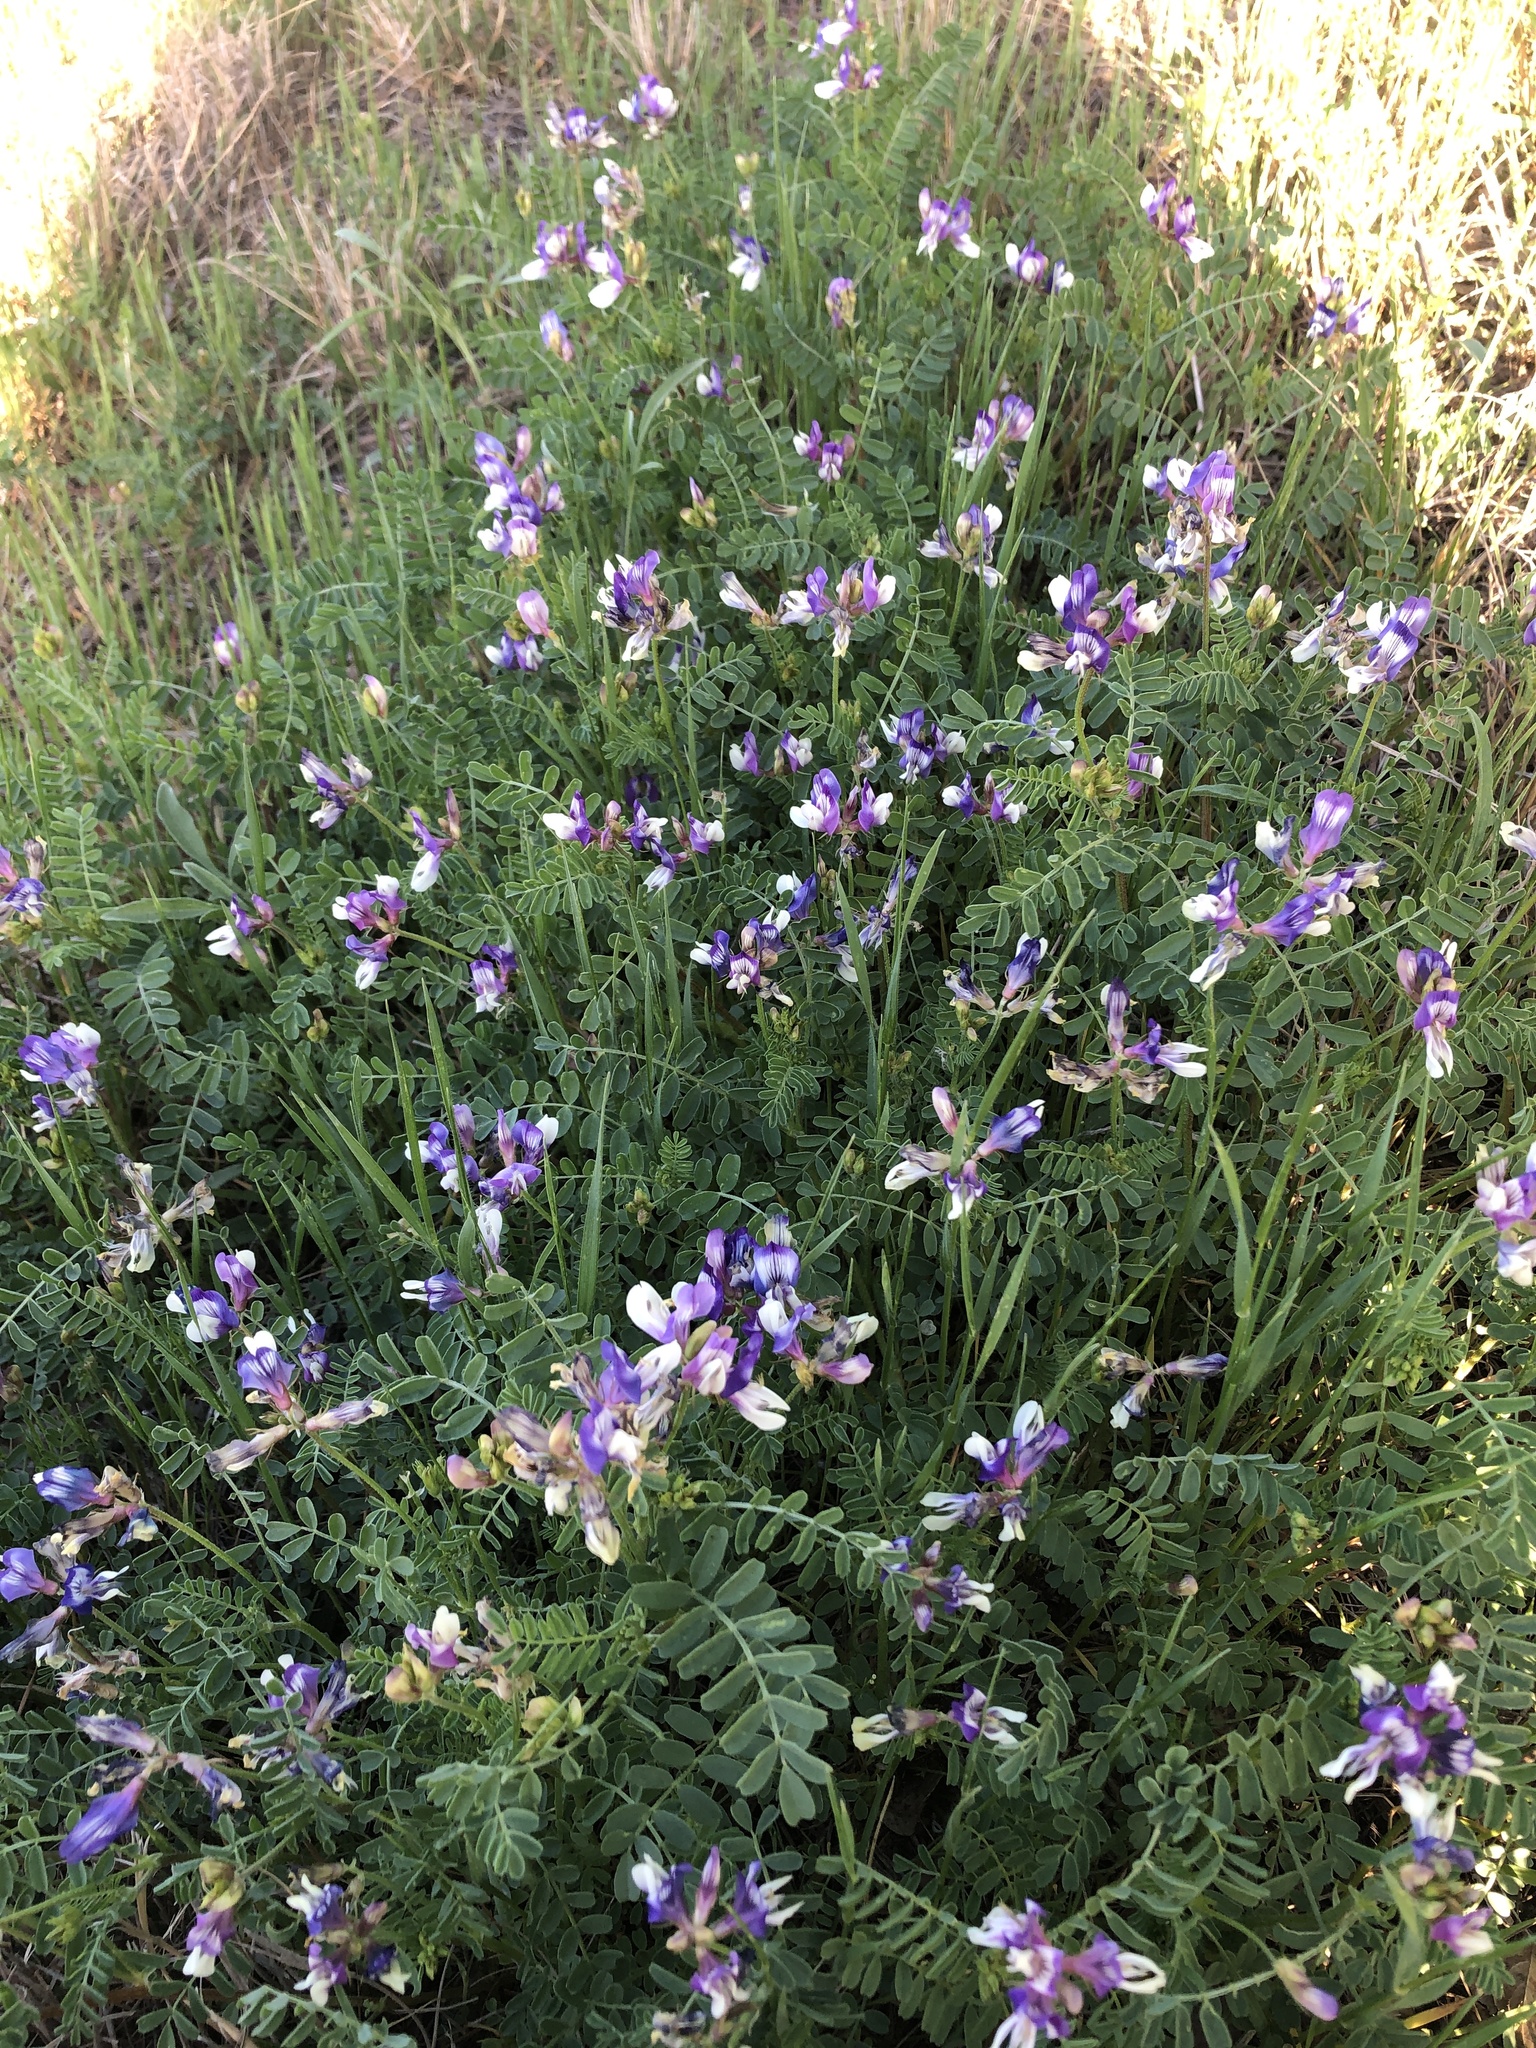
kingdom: Plantae
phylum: Tracheophyta
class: Magnoliopsida
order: Fabales
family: Fabaceae
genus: Astragalus
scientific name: Astragalus lindheimeri
